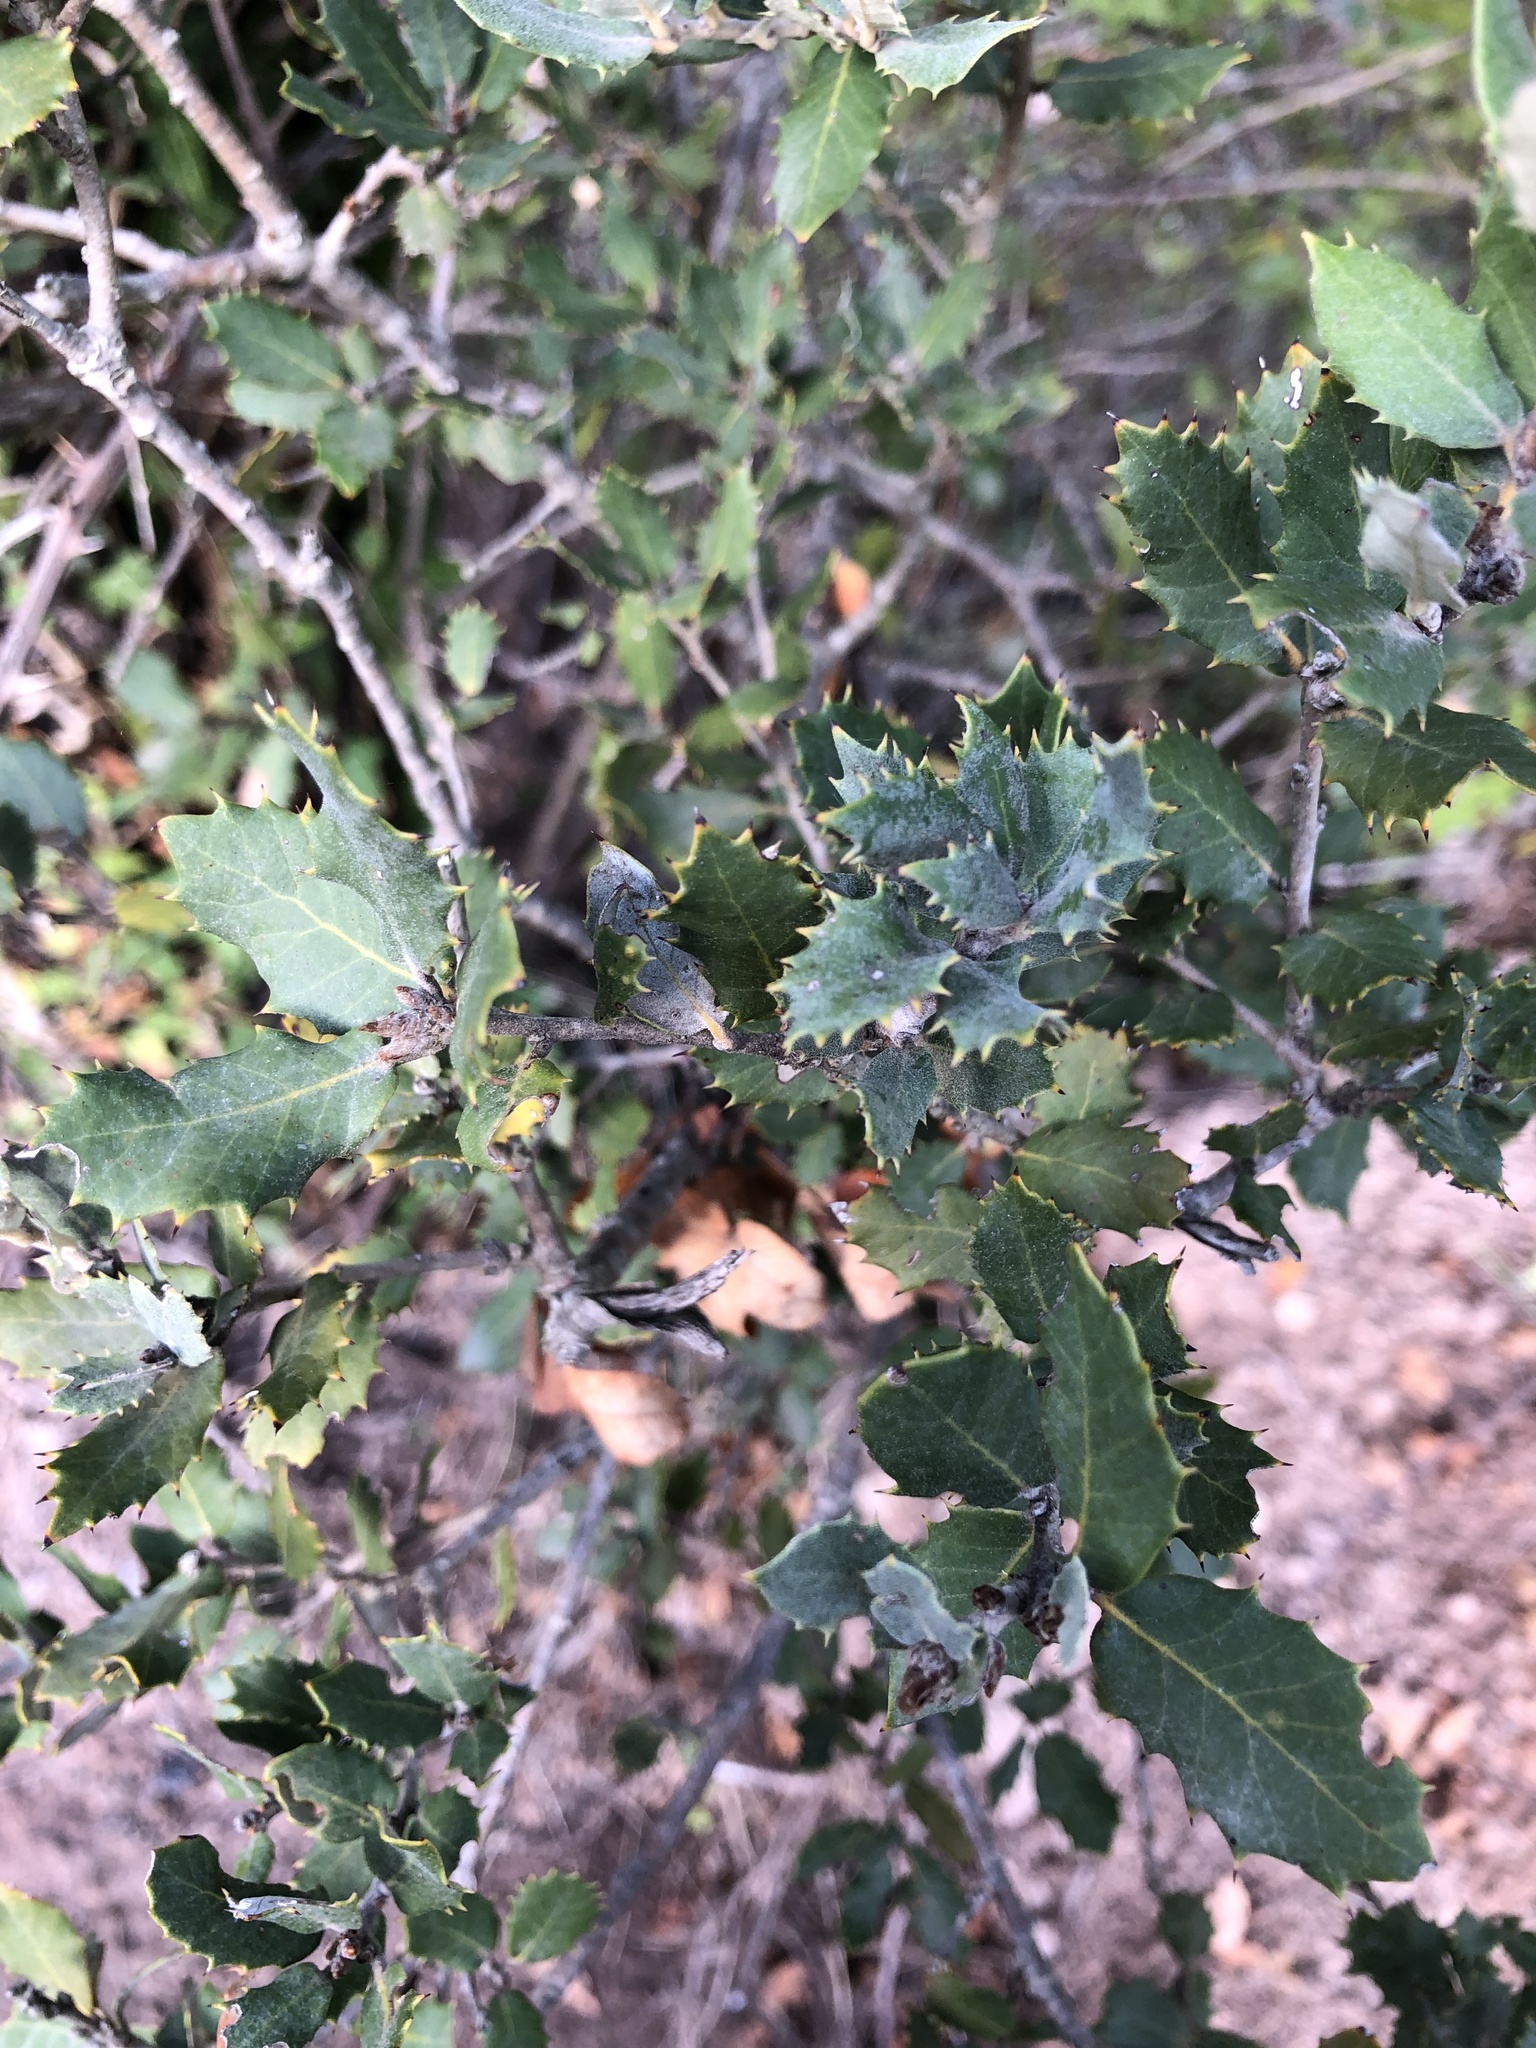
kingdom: Plantae
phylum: Tracheophyta
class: Magnoliopsida
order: Fagales
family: Fagaceae
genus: Quercus
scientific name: Quercus rotundifolia
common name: Holm oak
